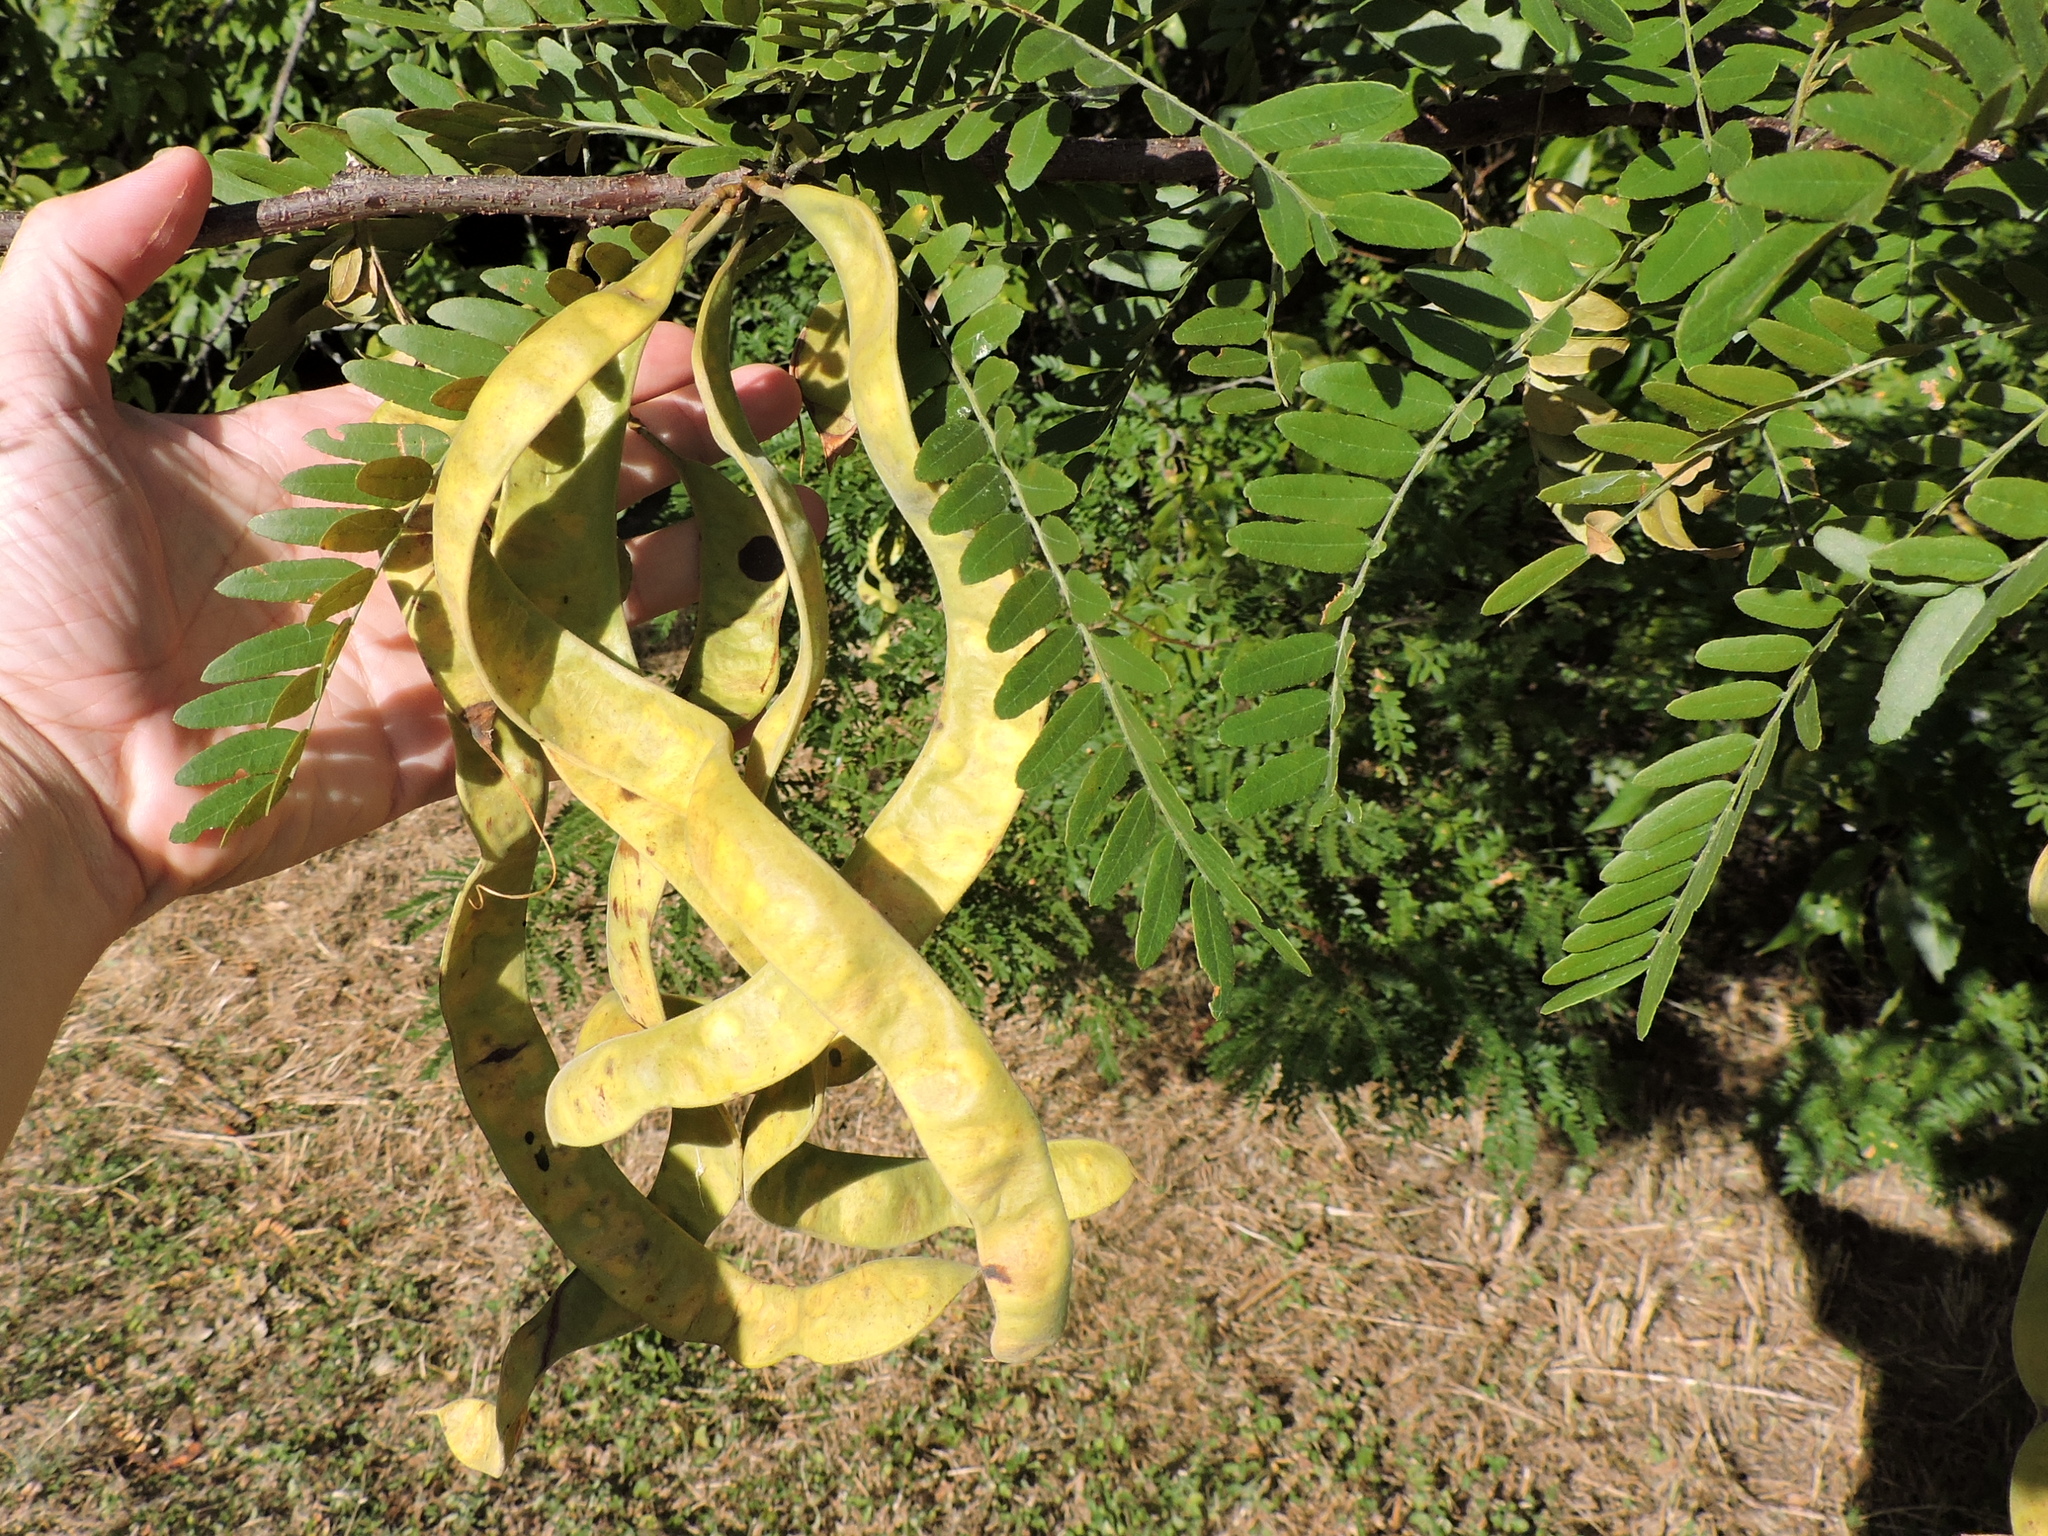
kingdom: Plantae
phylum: Tracheophyta
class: Magnoliopsida
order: Fabales
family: Fabaceae
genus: Gleditsia
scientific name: Gleditsia triacanthos
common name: Common honeylocust
